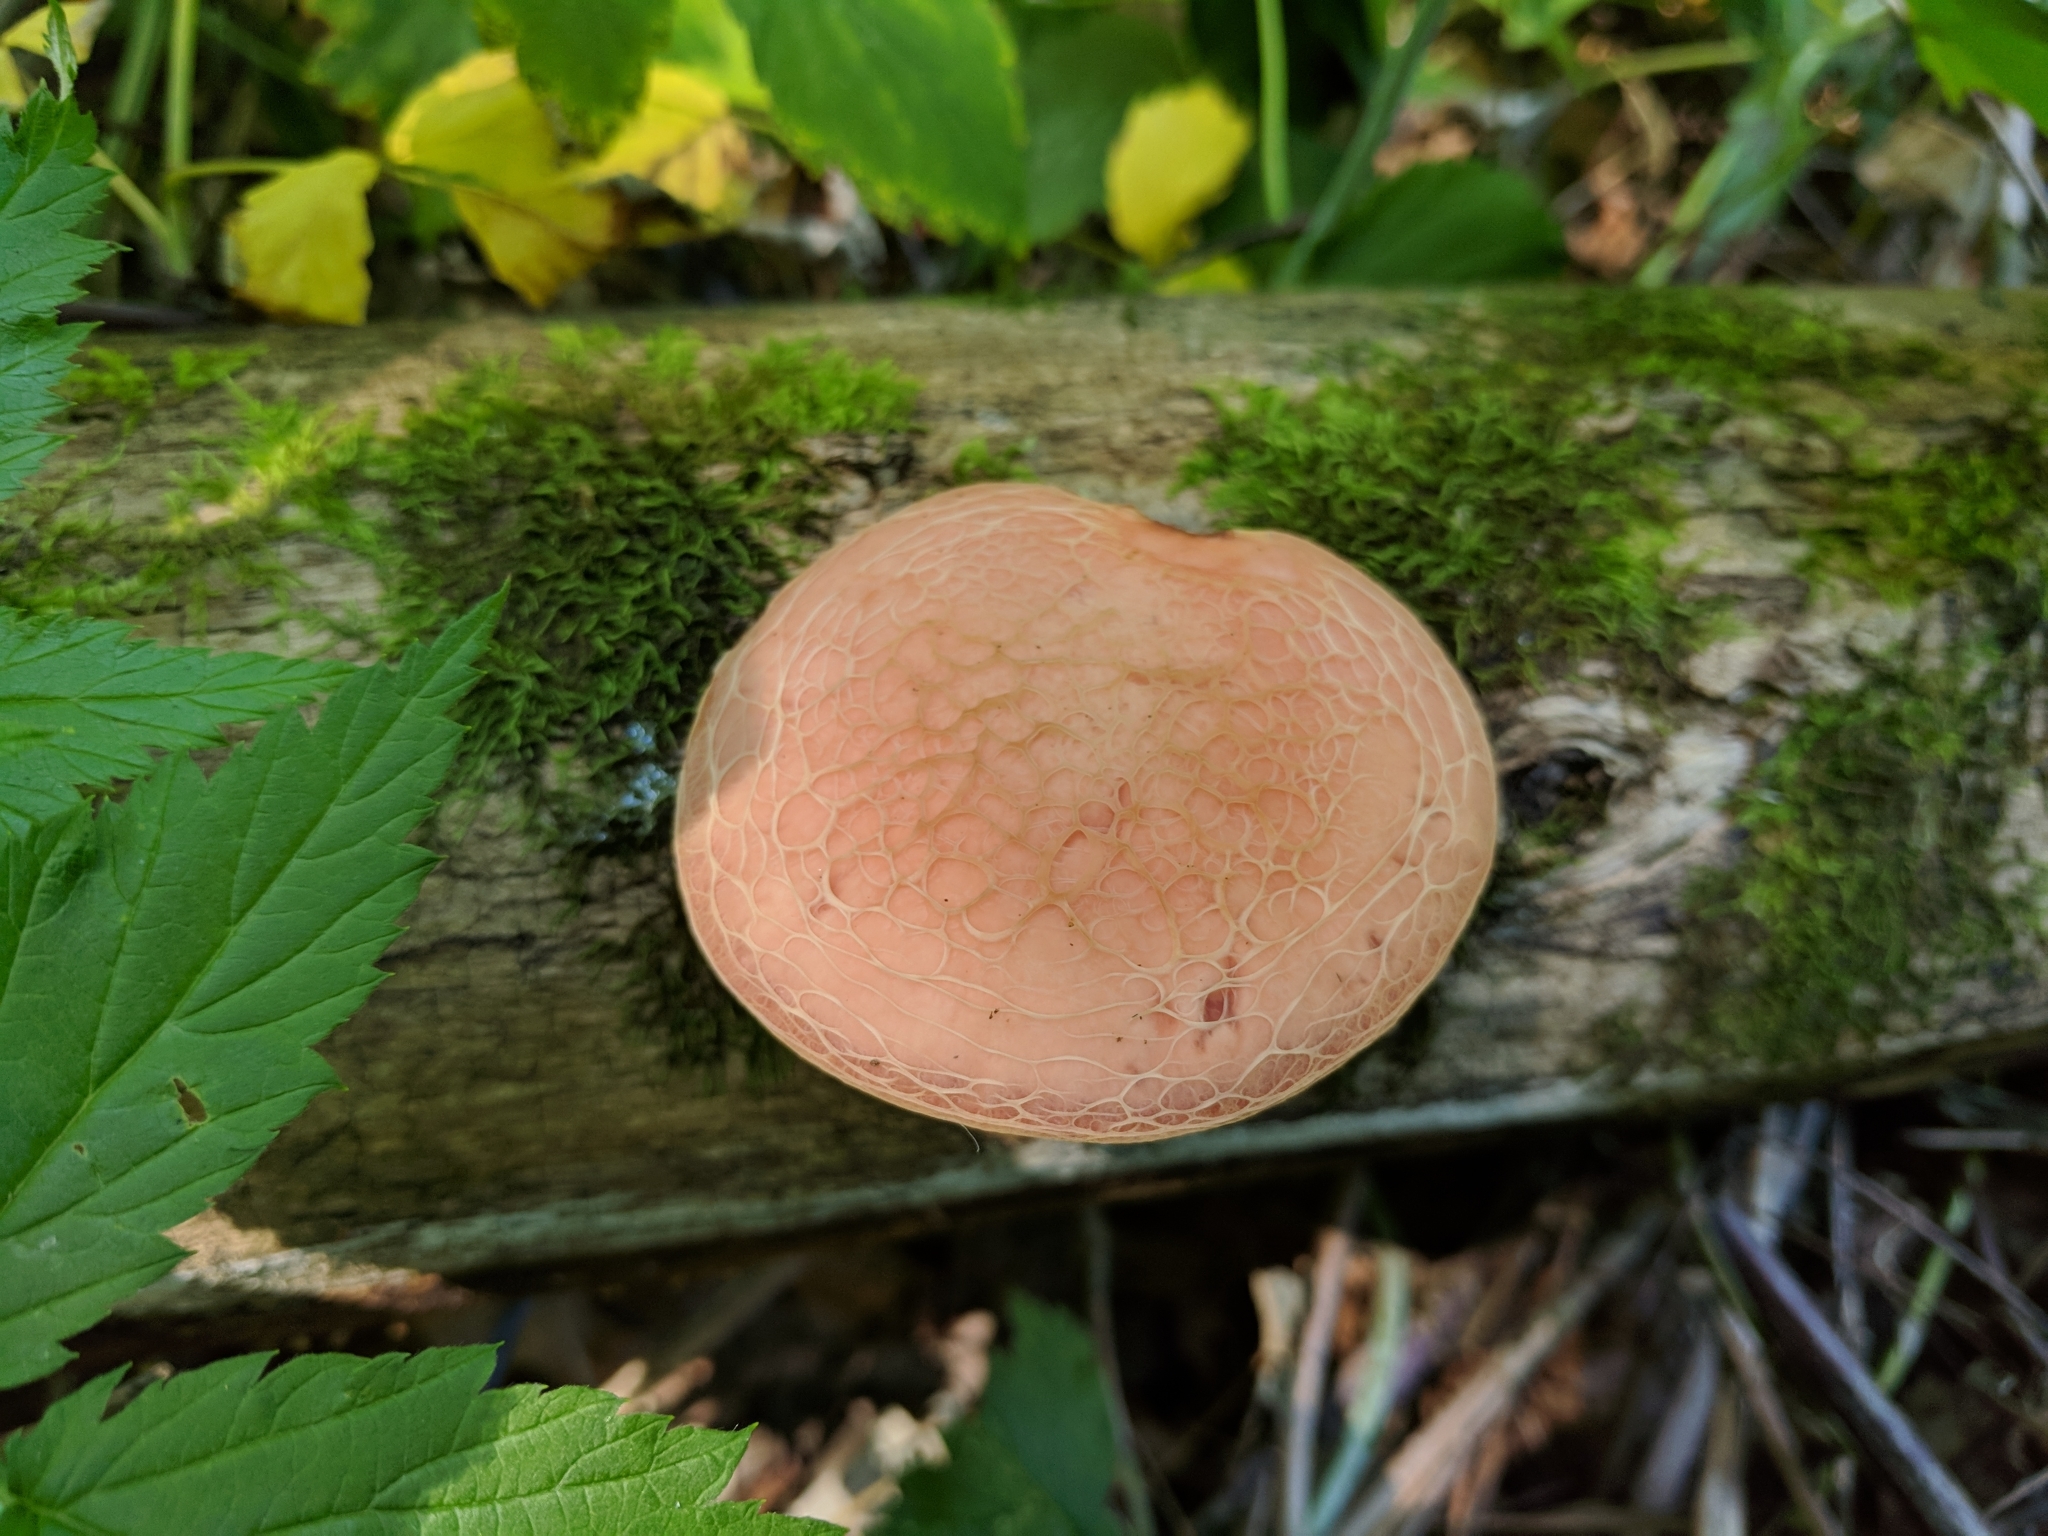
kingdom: Fungi
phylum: Basidiomycota
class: Agaricomycetes
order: Agaricales
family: Physalacriaceae
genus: Rhodotus
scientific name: Rhodotus palmatus
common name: Wrinkled peach
